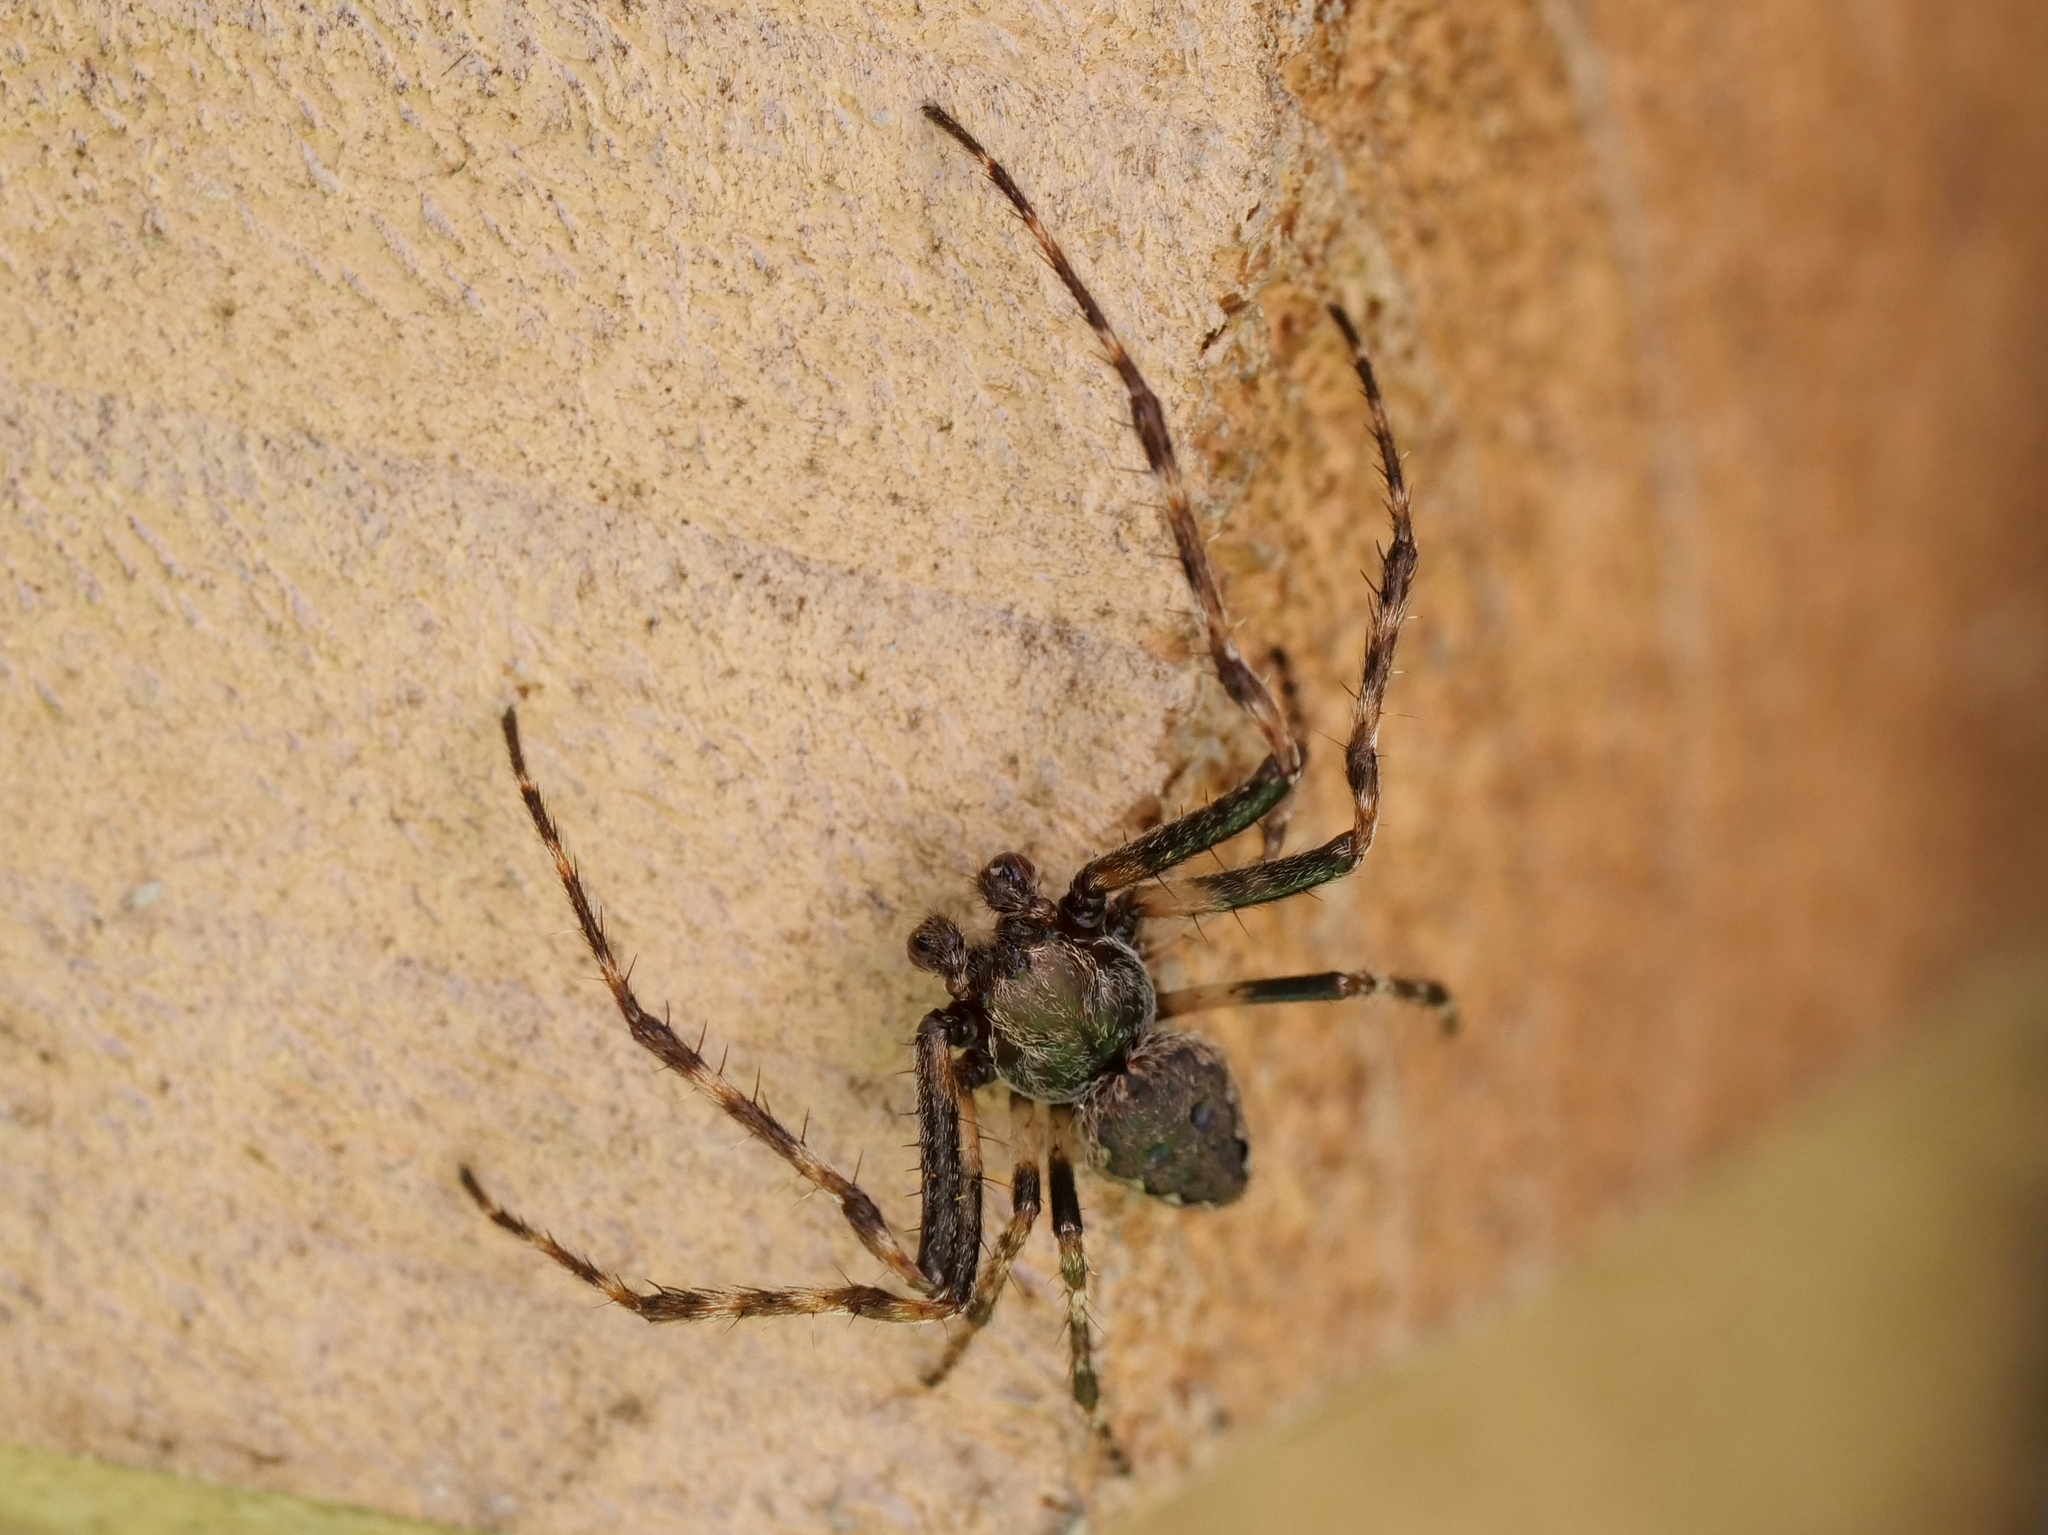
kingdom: Animalia
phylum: Arthropoda
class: Arachnida
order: Araneae
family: Araneidae
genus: Nuctenea
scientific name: Nuctenea umbratica
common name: Toad spider
